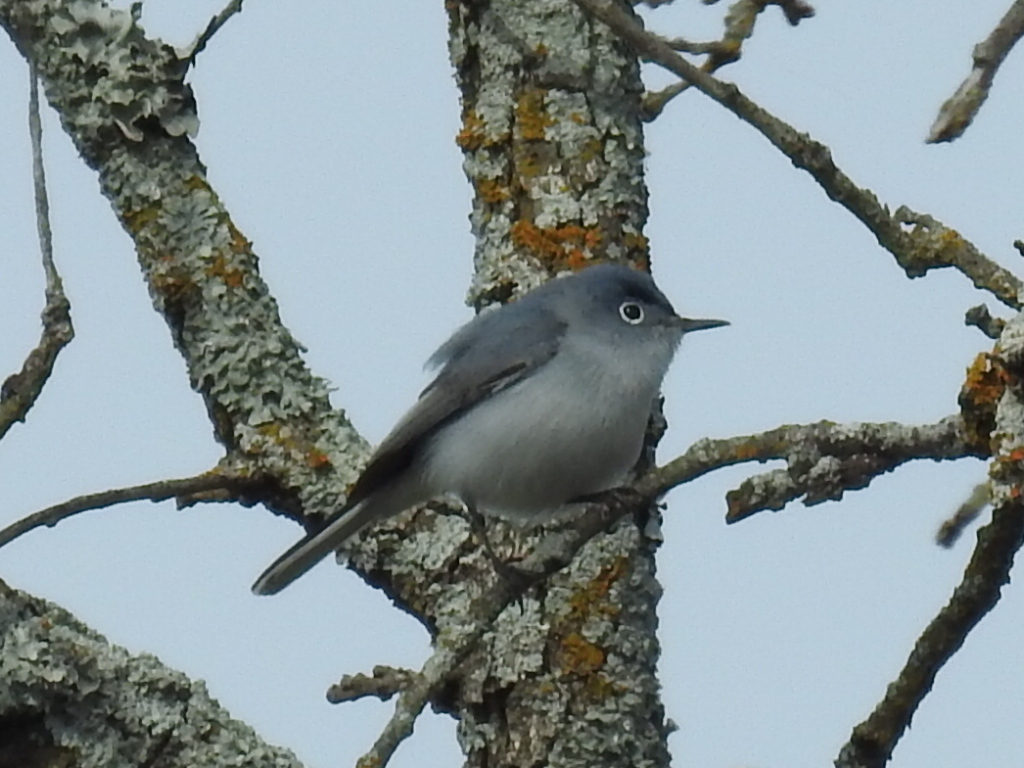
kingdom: Animalia
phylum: Chordata
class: Aves
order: Passeriformes
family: Polioptilidae
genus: Polioptila
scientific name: Polioptila caerulea
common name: Blue-gray gnatcatcher
